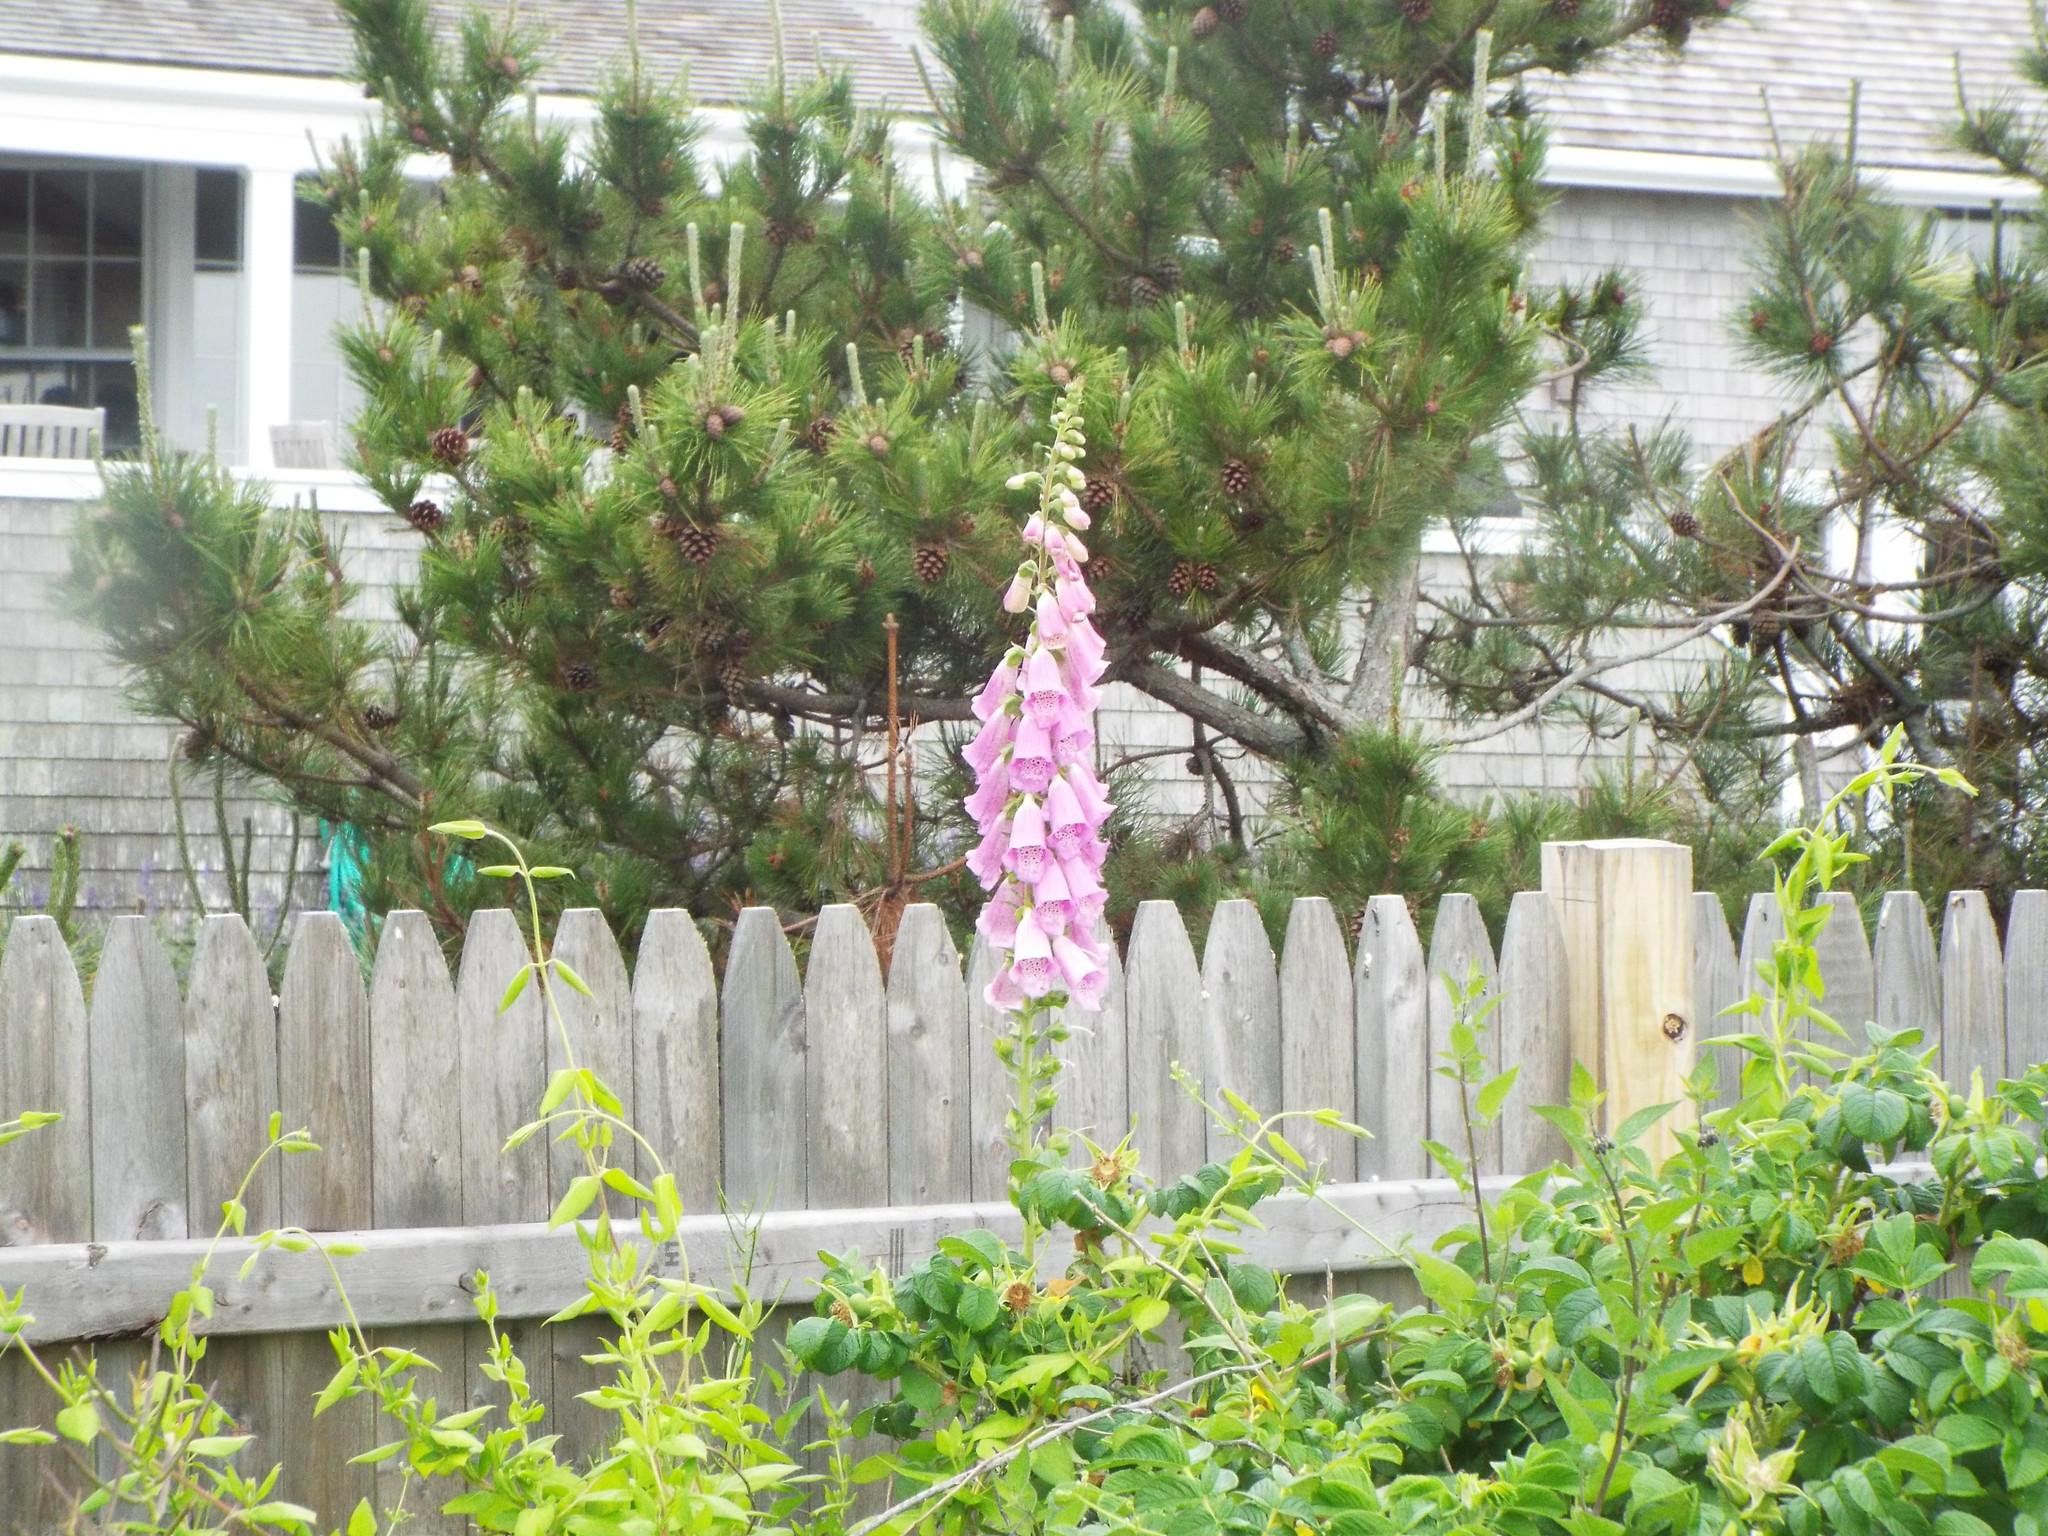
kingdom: Plantae
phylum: Tracheophyta
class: Magnoliopsida
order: Lamiales
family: Plantaginaceae
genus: Digitalis
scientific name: Digitalis purpurea
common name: Foxglove
